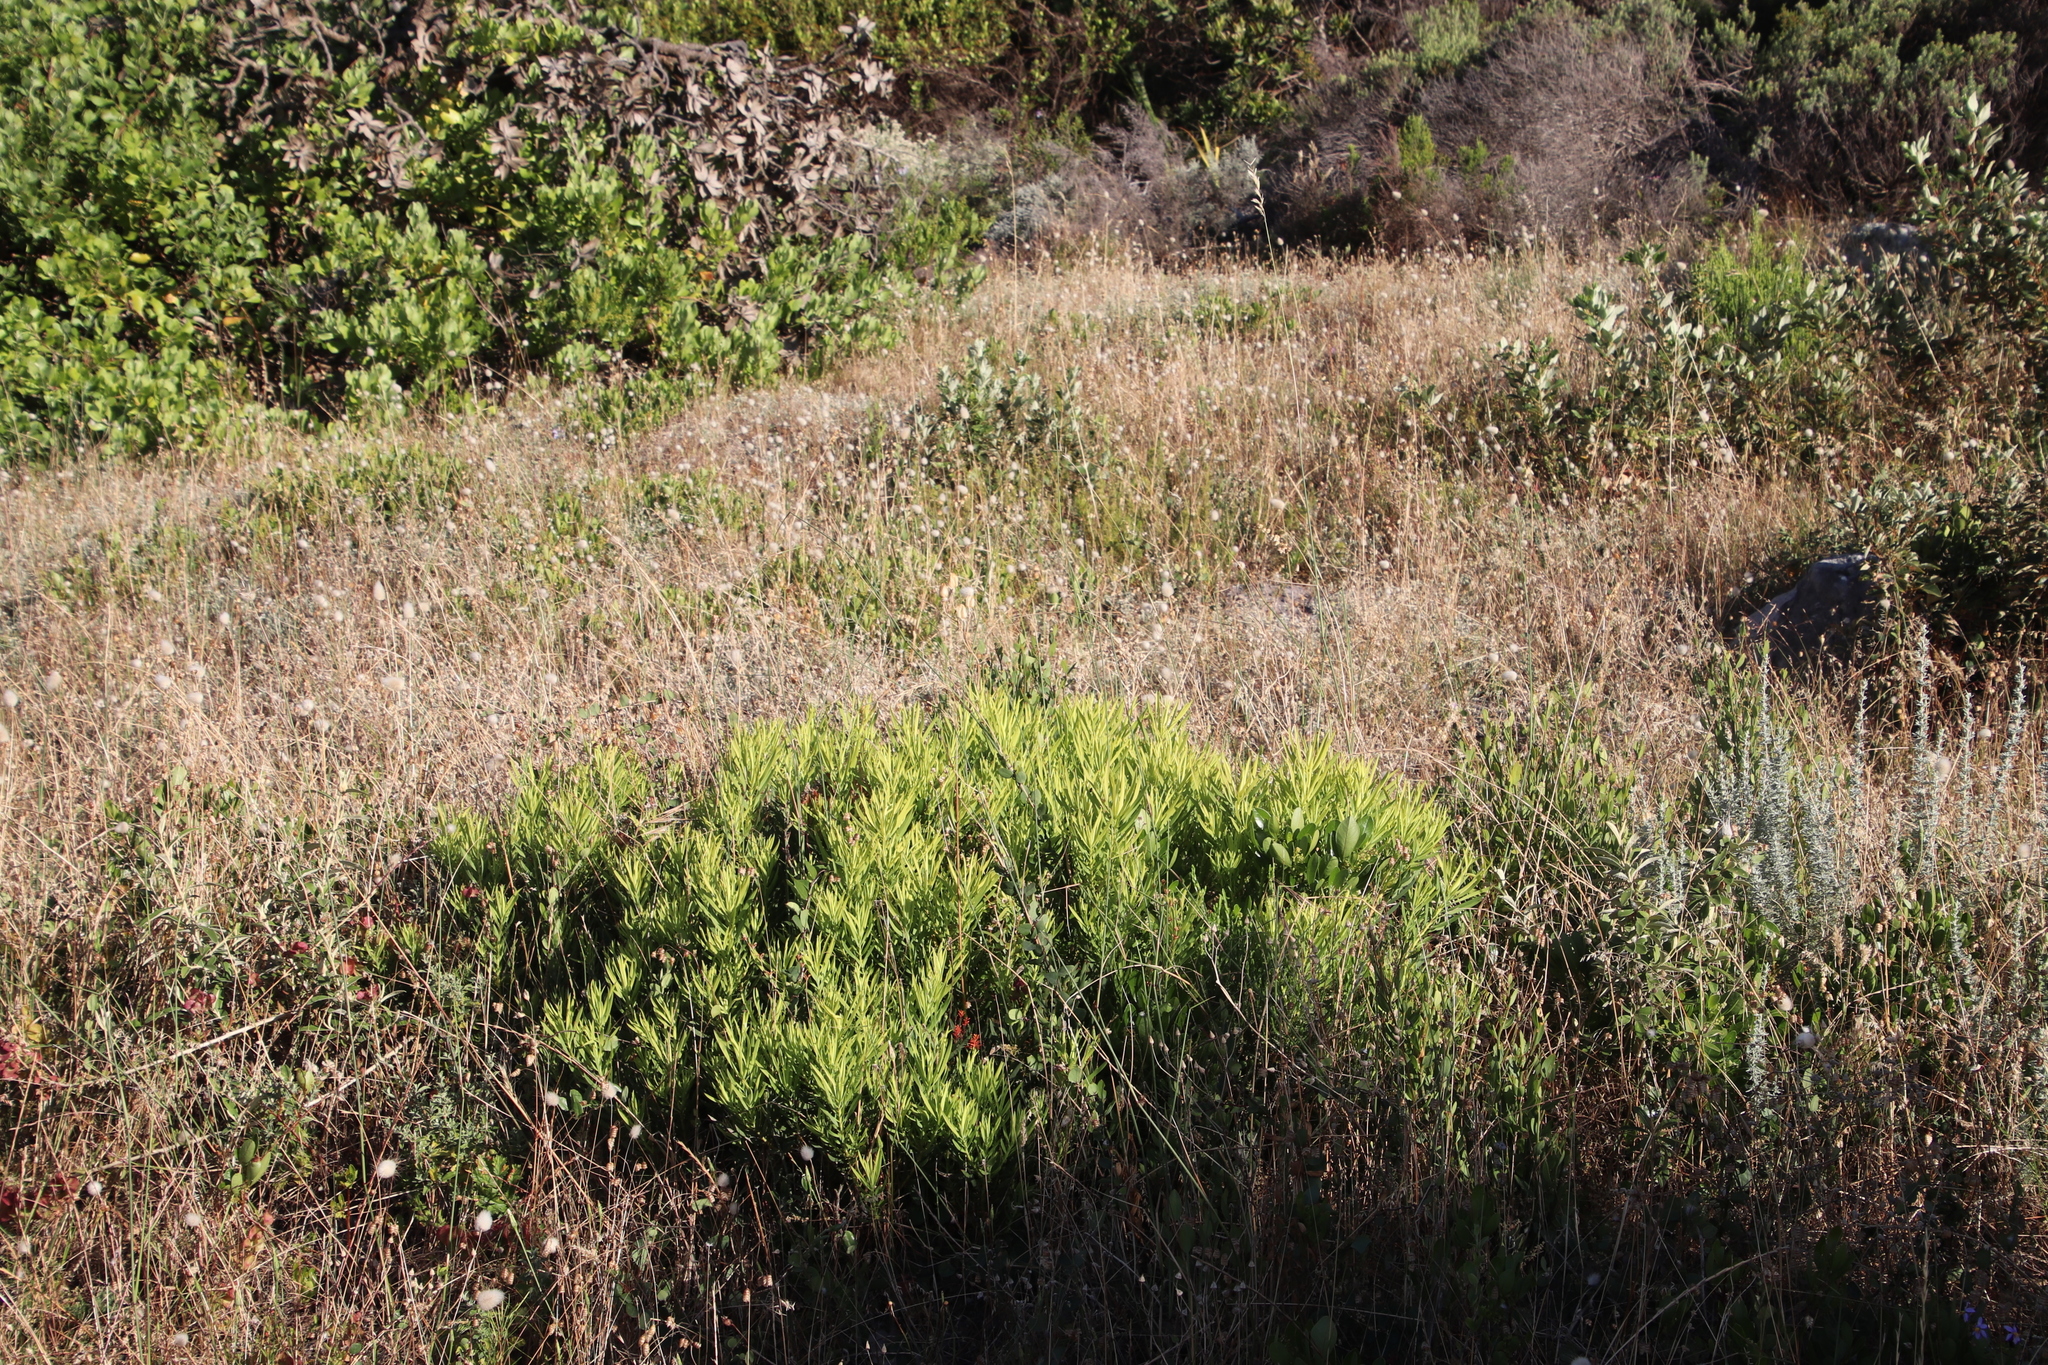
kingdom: Plantae
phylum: Tracheophyta
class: Magnoliopsida
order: Proteales
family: Proteaceae
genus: Leucadendron
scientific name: Leucadendron salignum
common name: Common sunshine conebush
